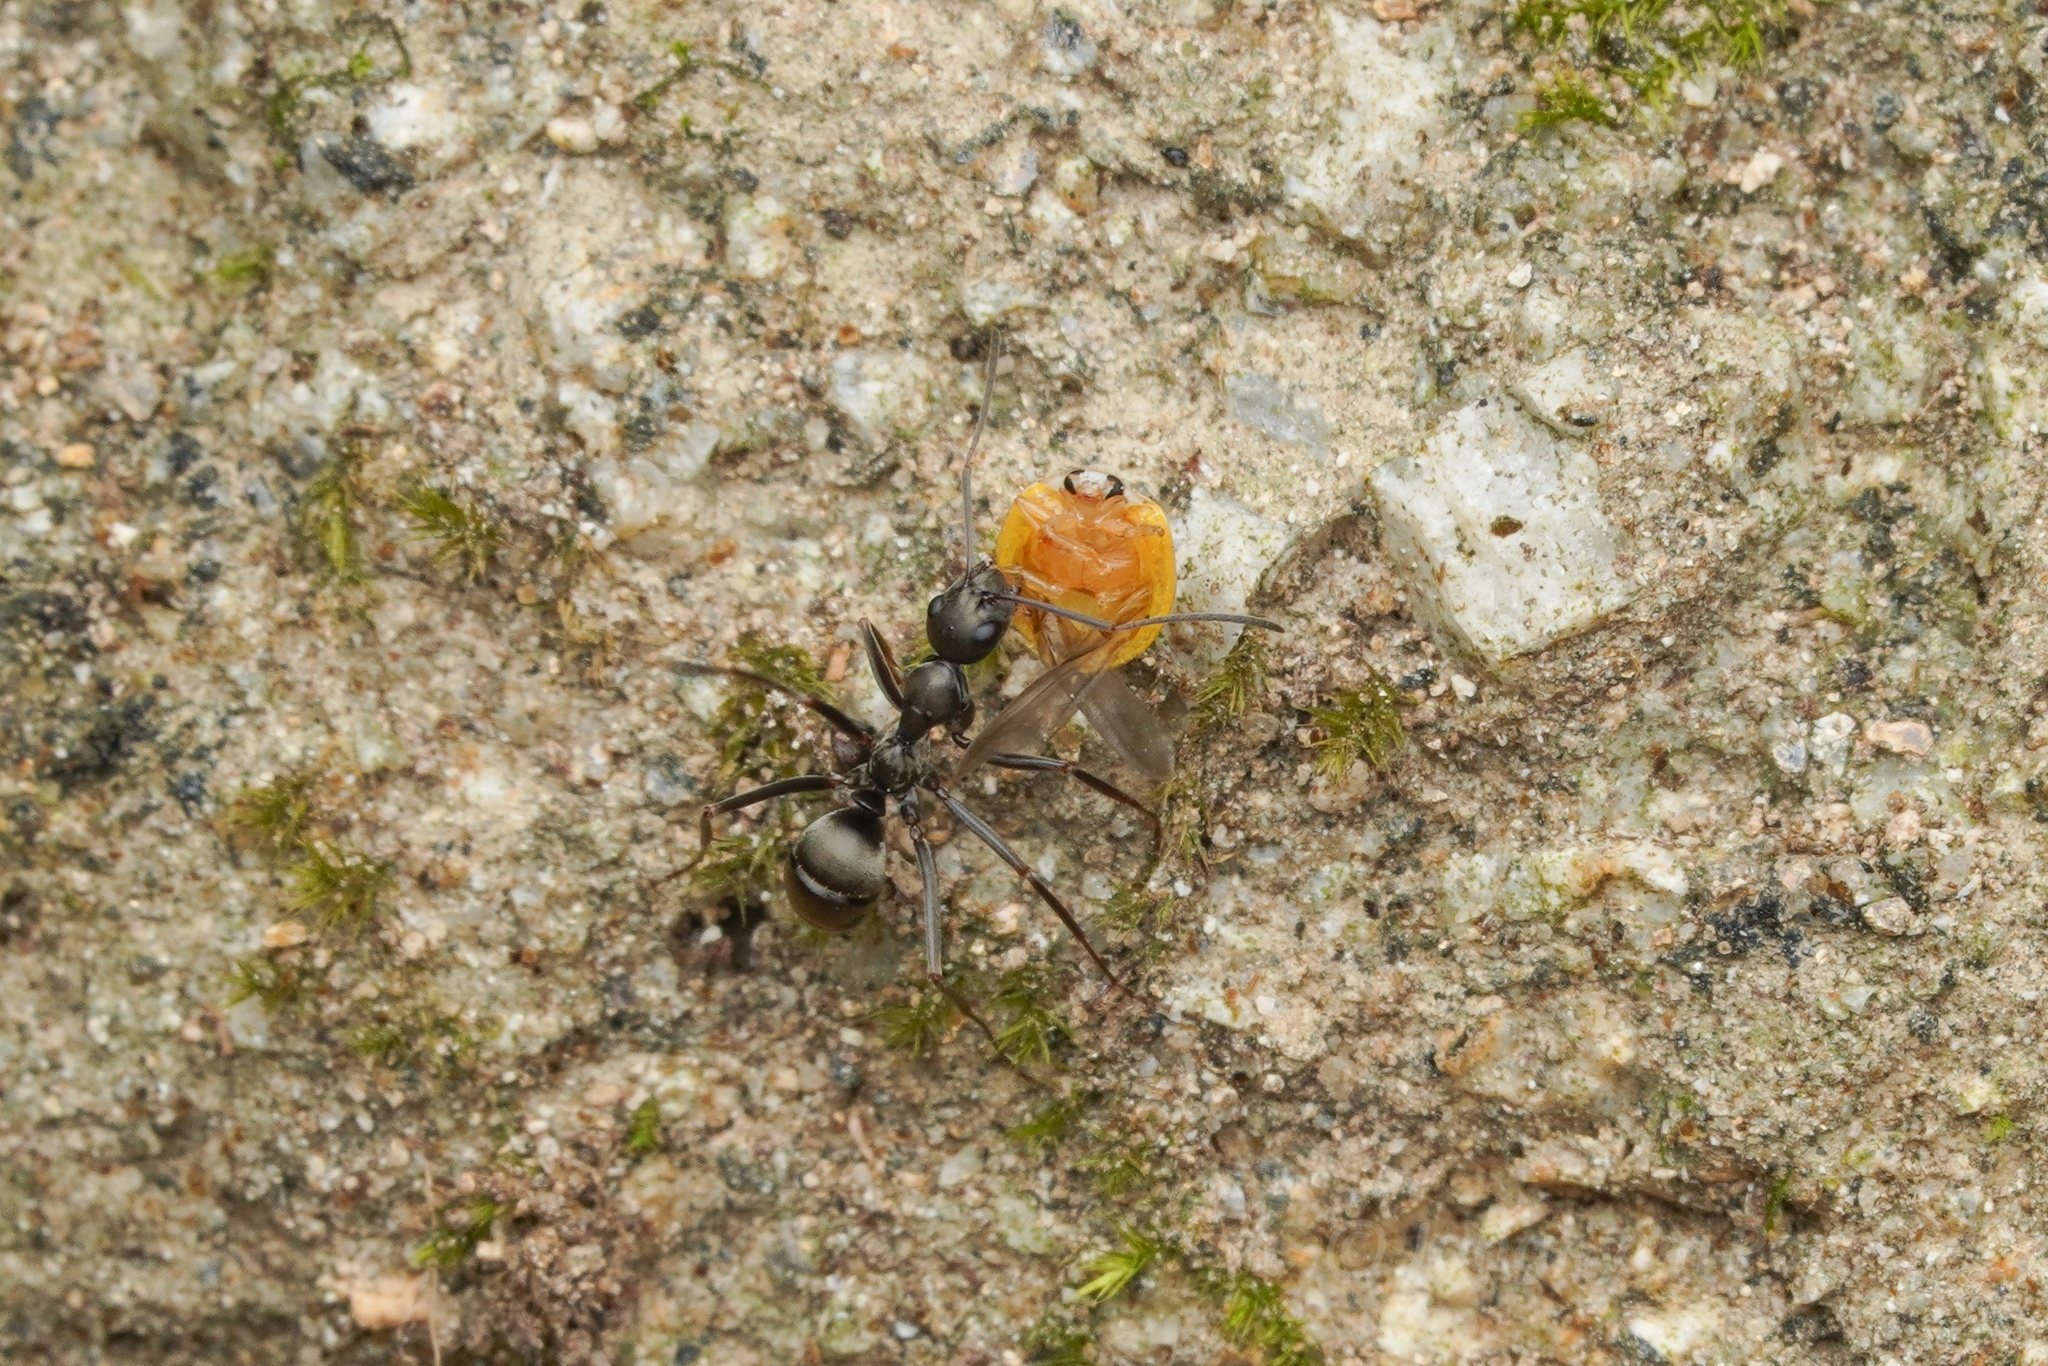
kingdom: Animalia
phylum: Arthropoda
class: Insecta
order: Hymenoptera
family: Formicidae
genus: Formica
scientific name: Formica hayashi
